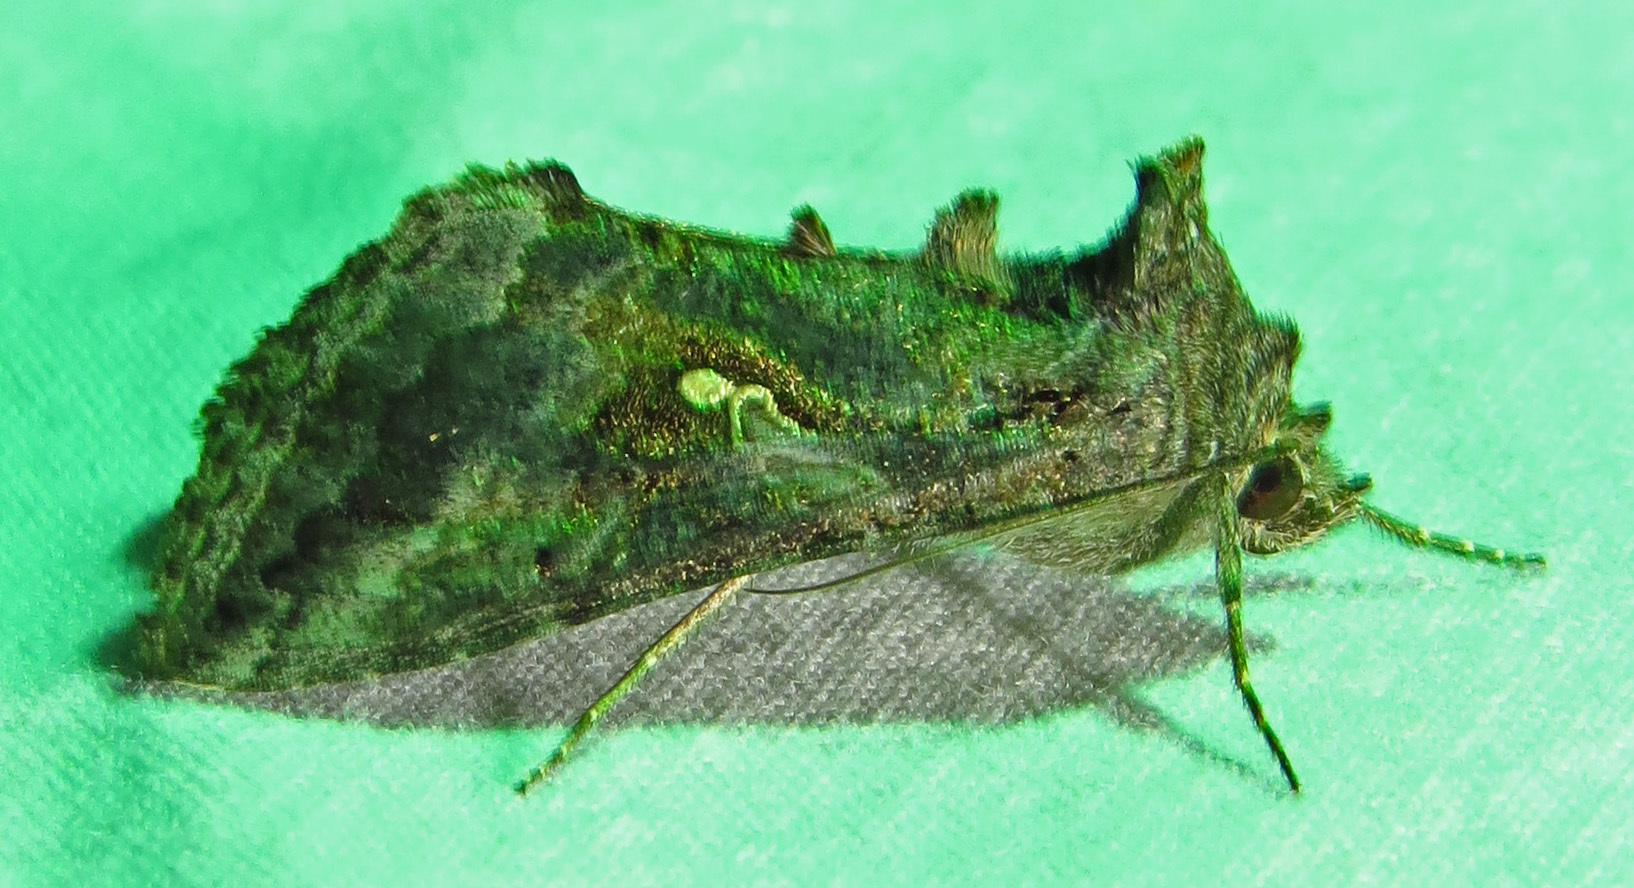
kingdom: Animalia
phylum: Arthropoda
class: Insecta
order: Lepidoptera
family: Noctuidae
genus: Rachiplusia
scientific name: Rachiplusia ou
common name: Gray looper moth
